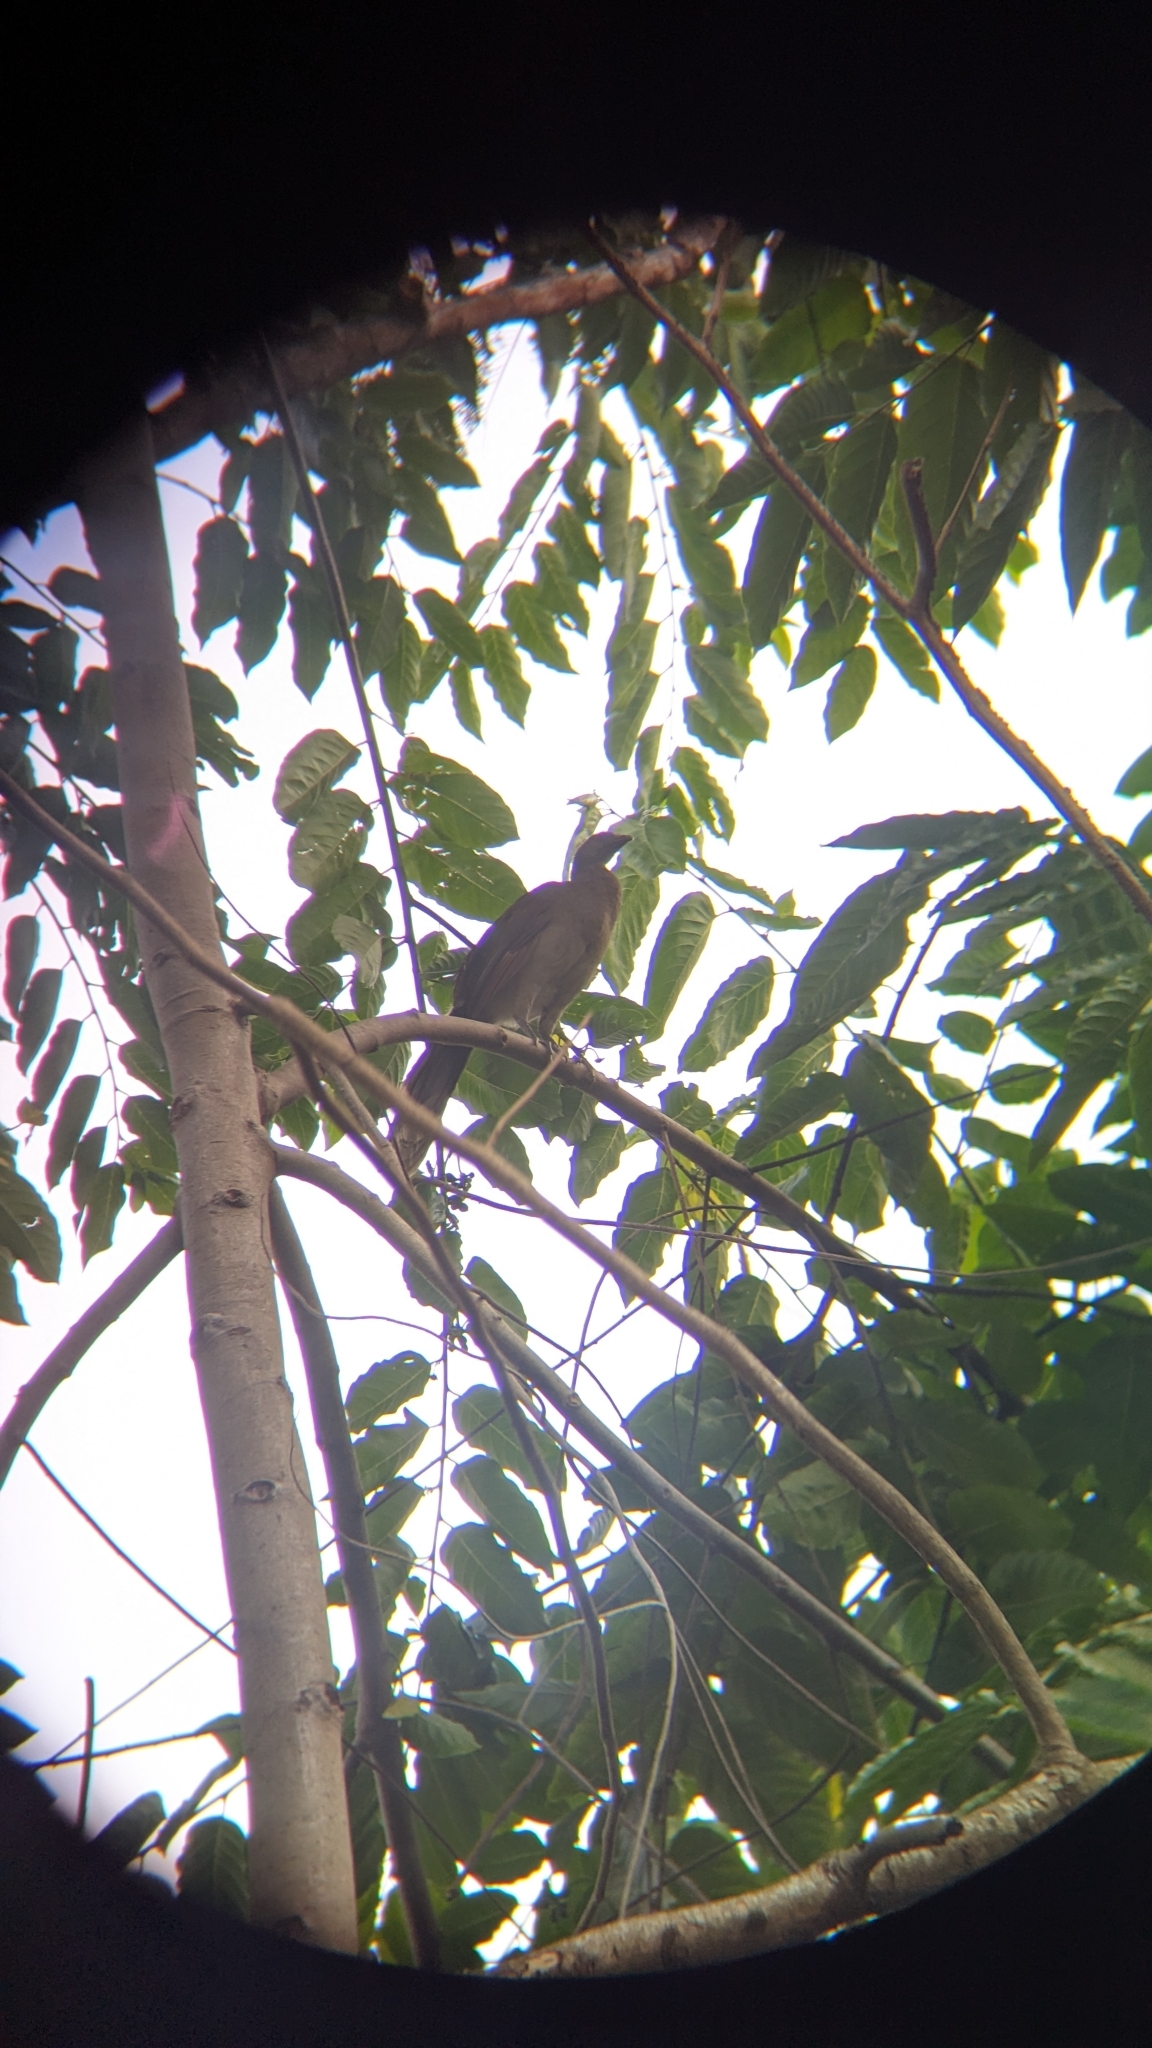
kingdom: Animalia
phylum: Chordata
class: Aves
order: Galliformes
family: Cracidae
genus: Ortalis
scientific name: Ortalis cinereiceps
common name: Grey-headed chachalaca
